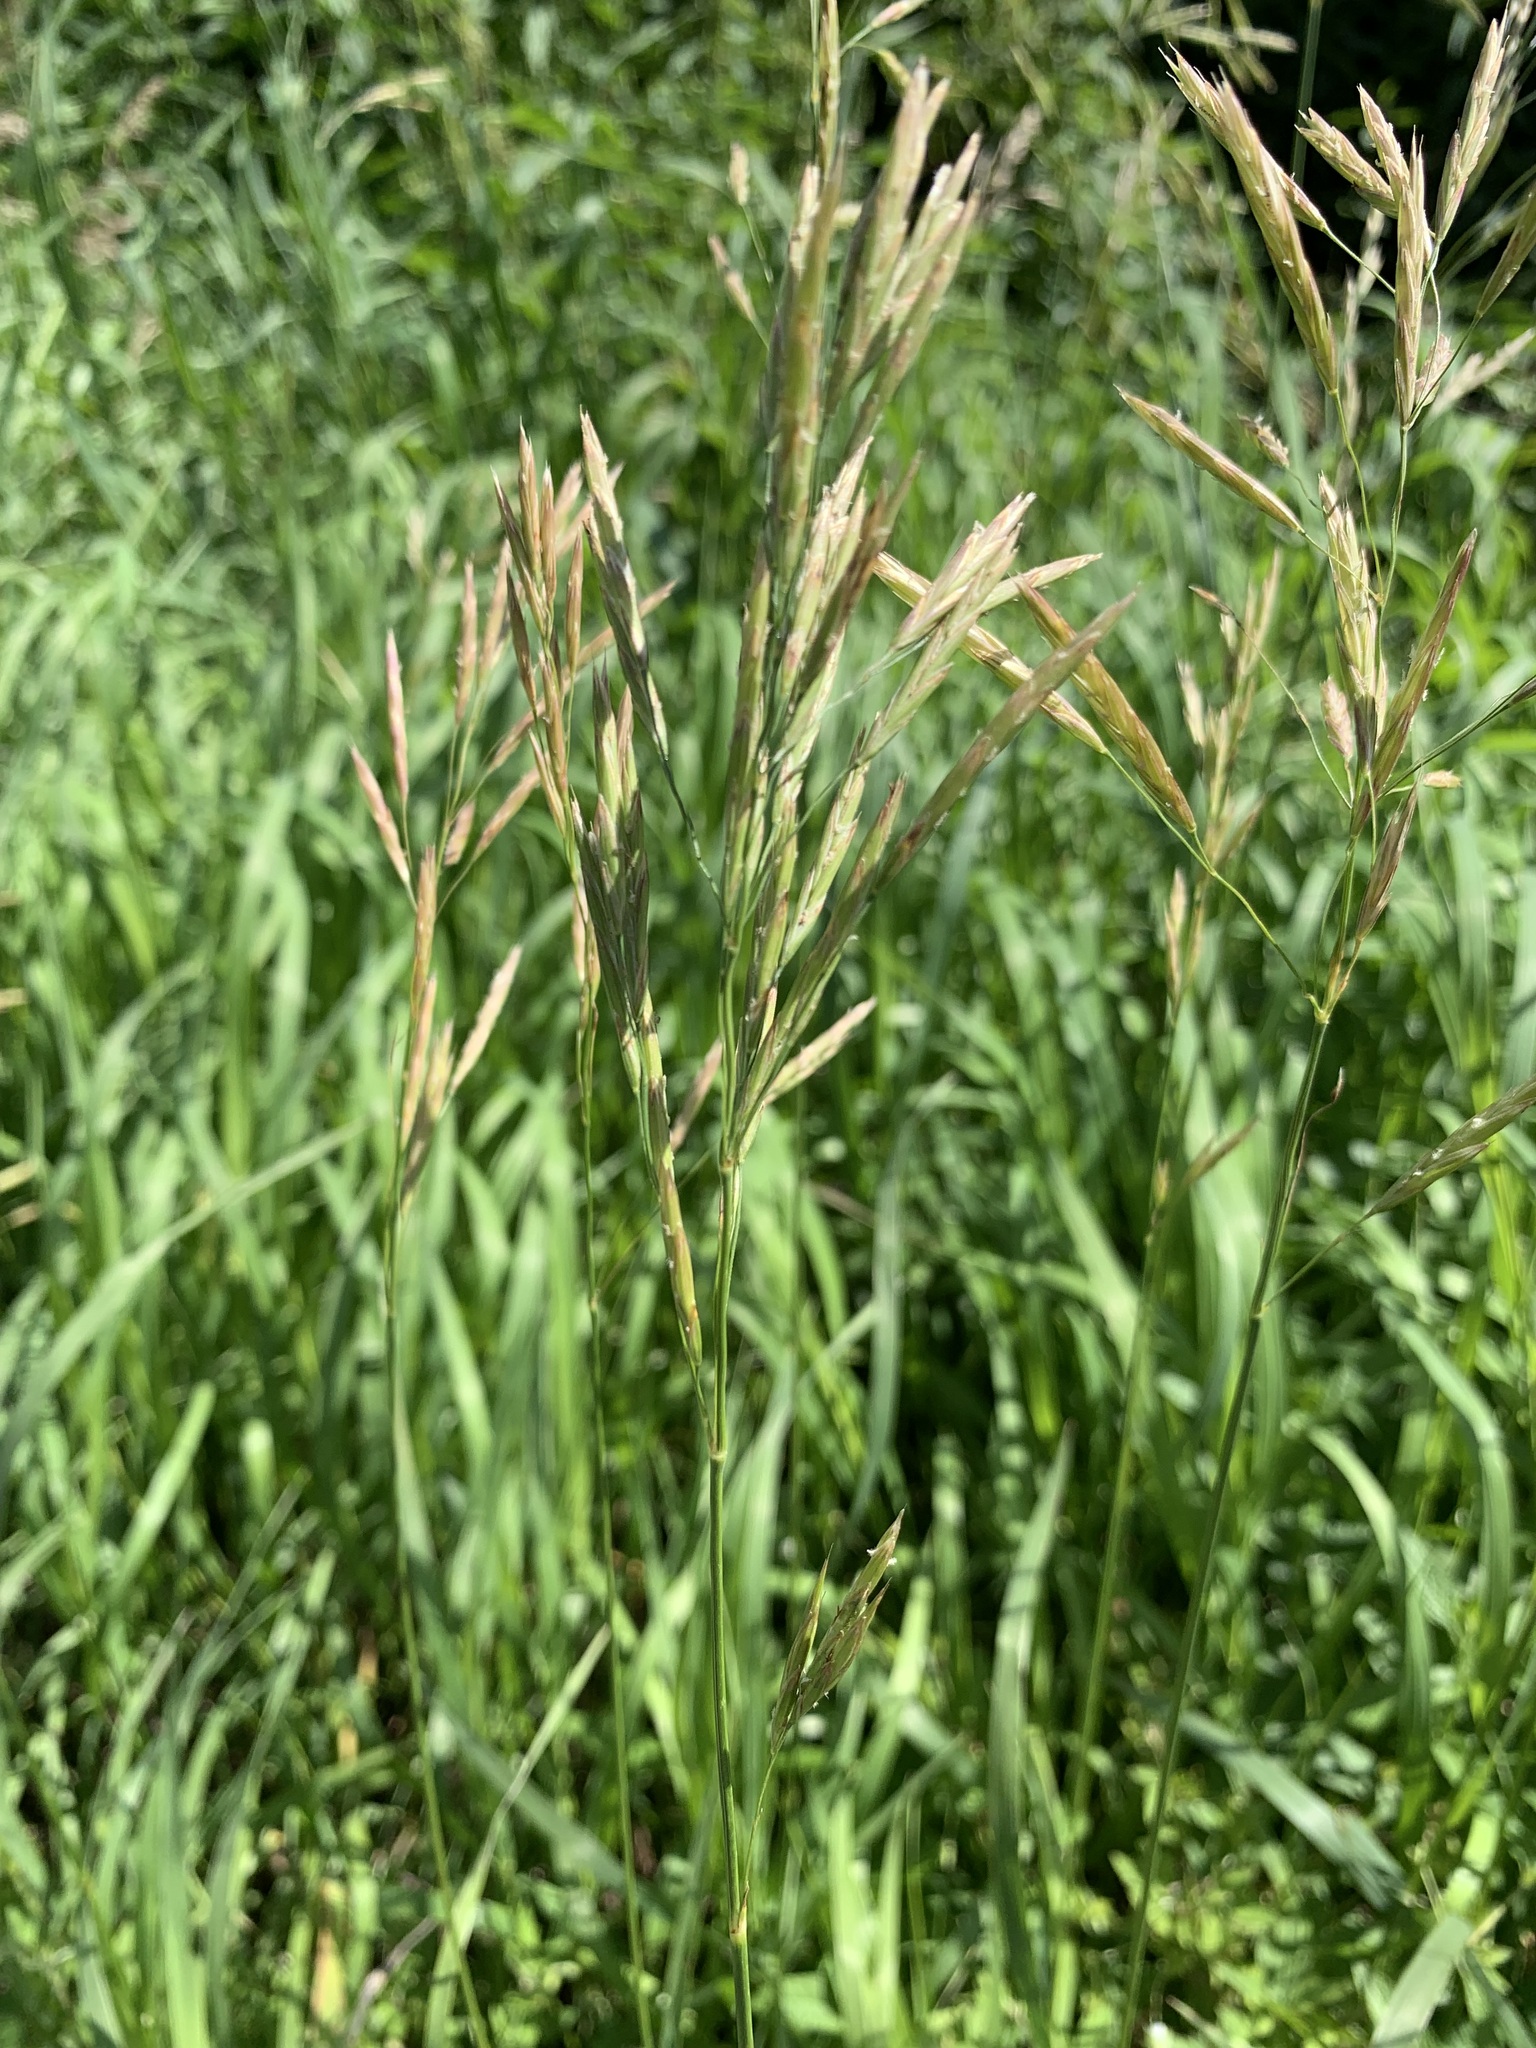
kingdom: Plantae
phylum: Tracheophyta
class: Liliopsida
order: Poales
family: Poaceae
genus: Bromus
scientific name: Bromus inermis
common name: Smooth brome
